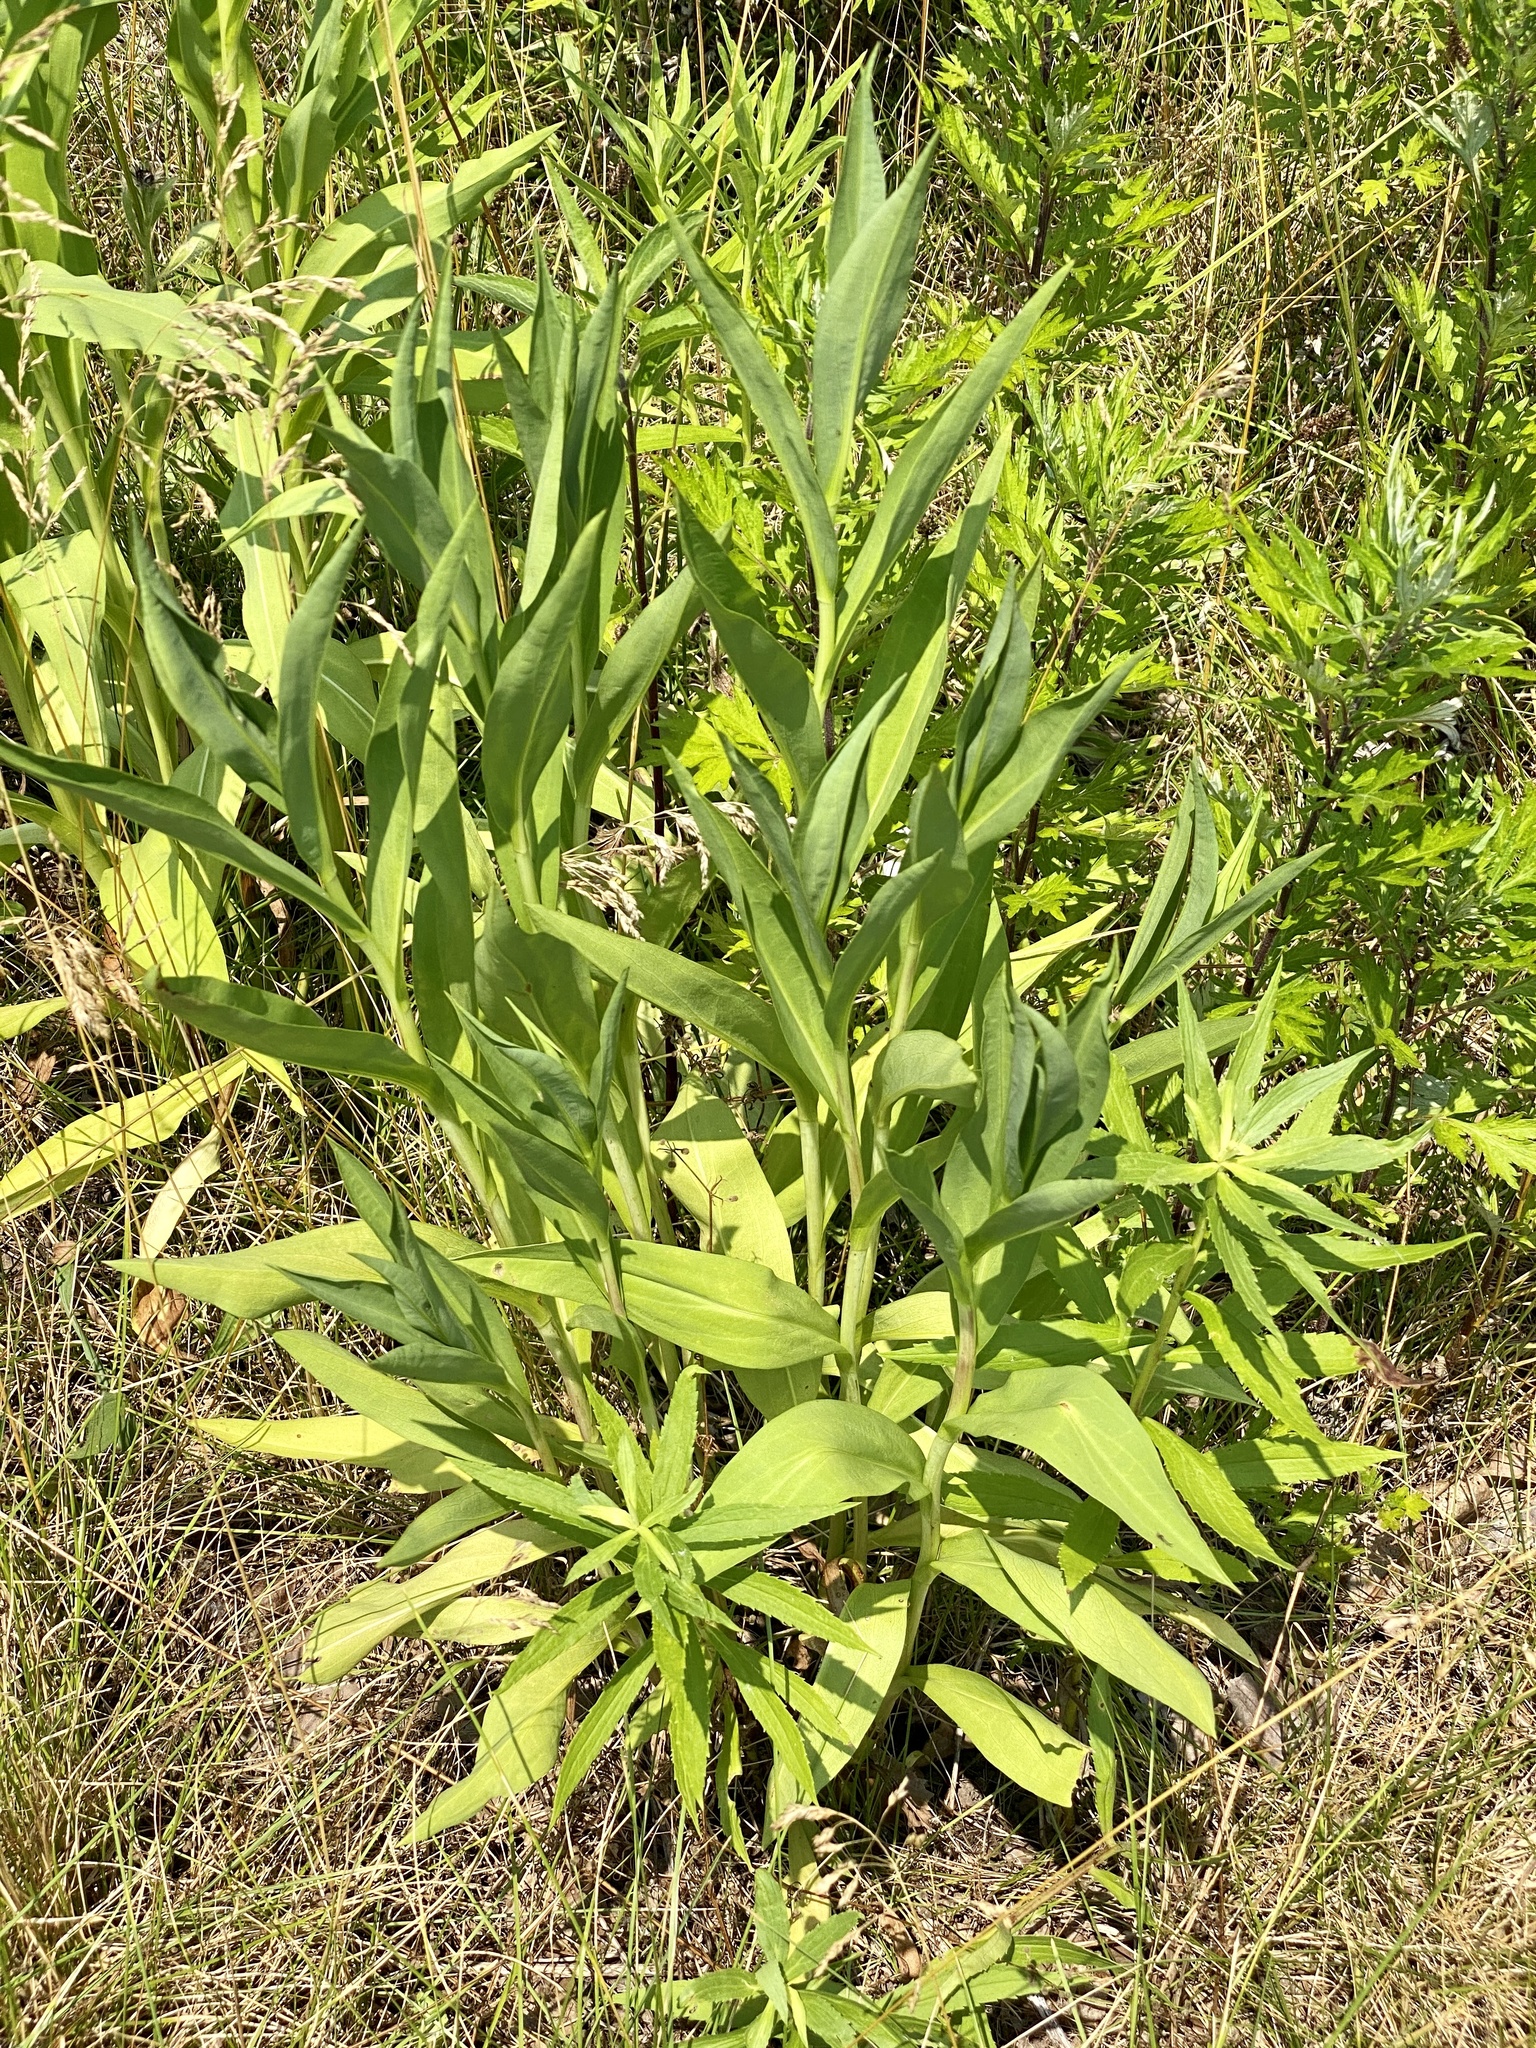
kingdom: Plantae
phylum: Tracheophyta
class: Magnoliopsida
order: Asterales
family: Asteraceae
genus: Solidago
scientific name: Solidago sempervirens
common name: Salt-marsh goldenrod
